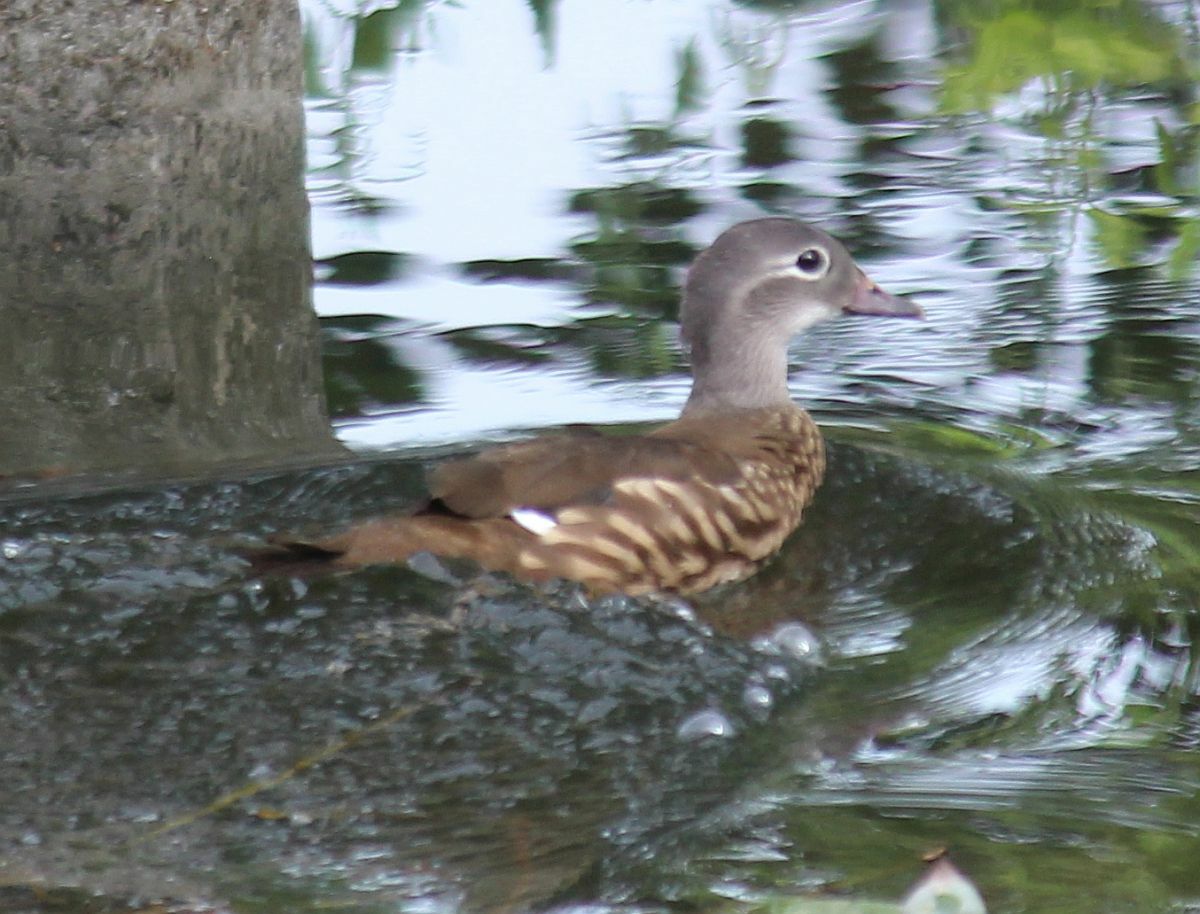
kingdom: Animalia
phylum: Chordata
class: Aves
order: Anseriformes
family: Anatidae
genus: Aix
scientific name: Aix galericulata
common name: Mandarin duck
